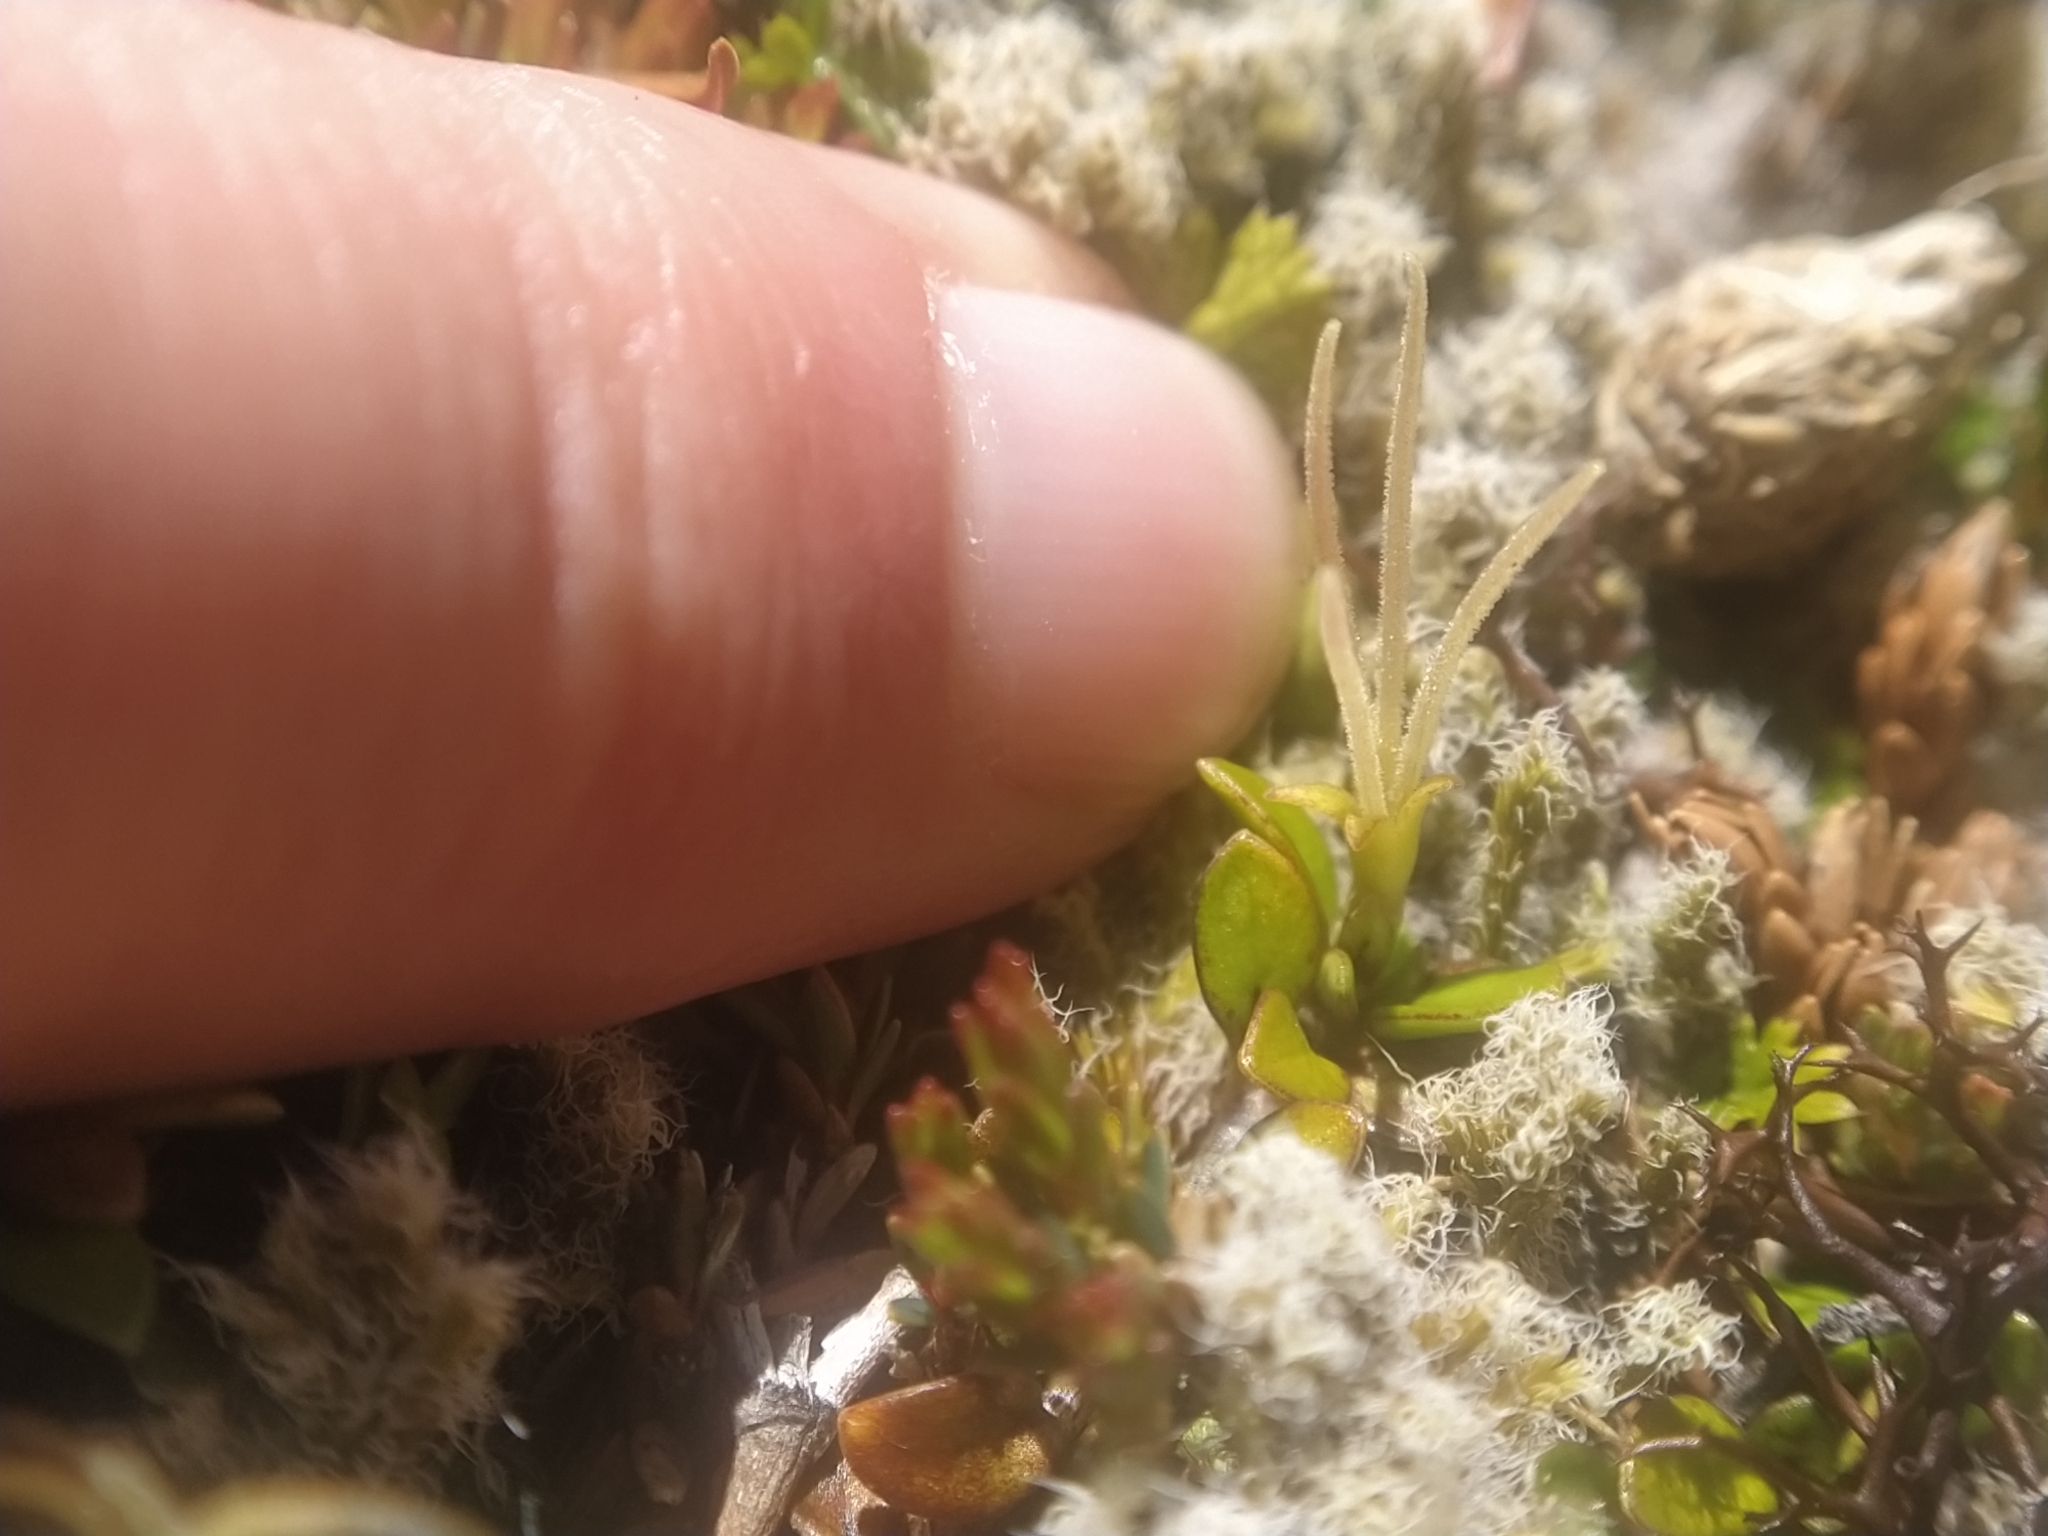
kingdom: Plantae
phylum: Tracheophyta
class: Magnoliopsida
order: Gentianales
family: Rubiaceae
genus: Coprosma
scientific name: Coprosma perpusilla
